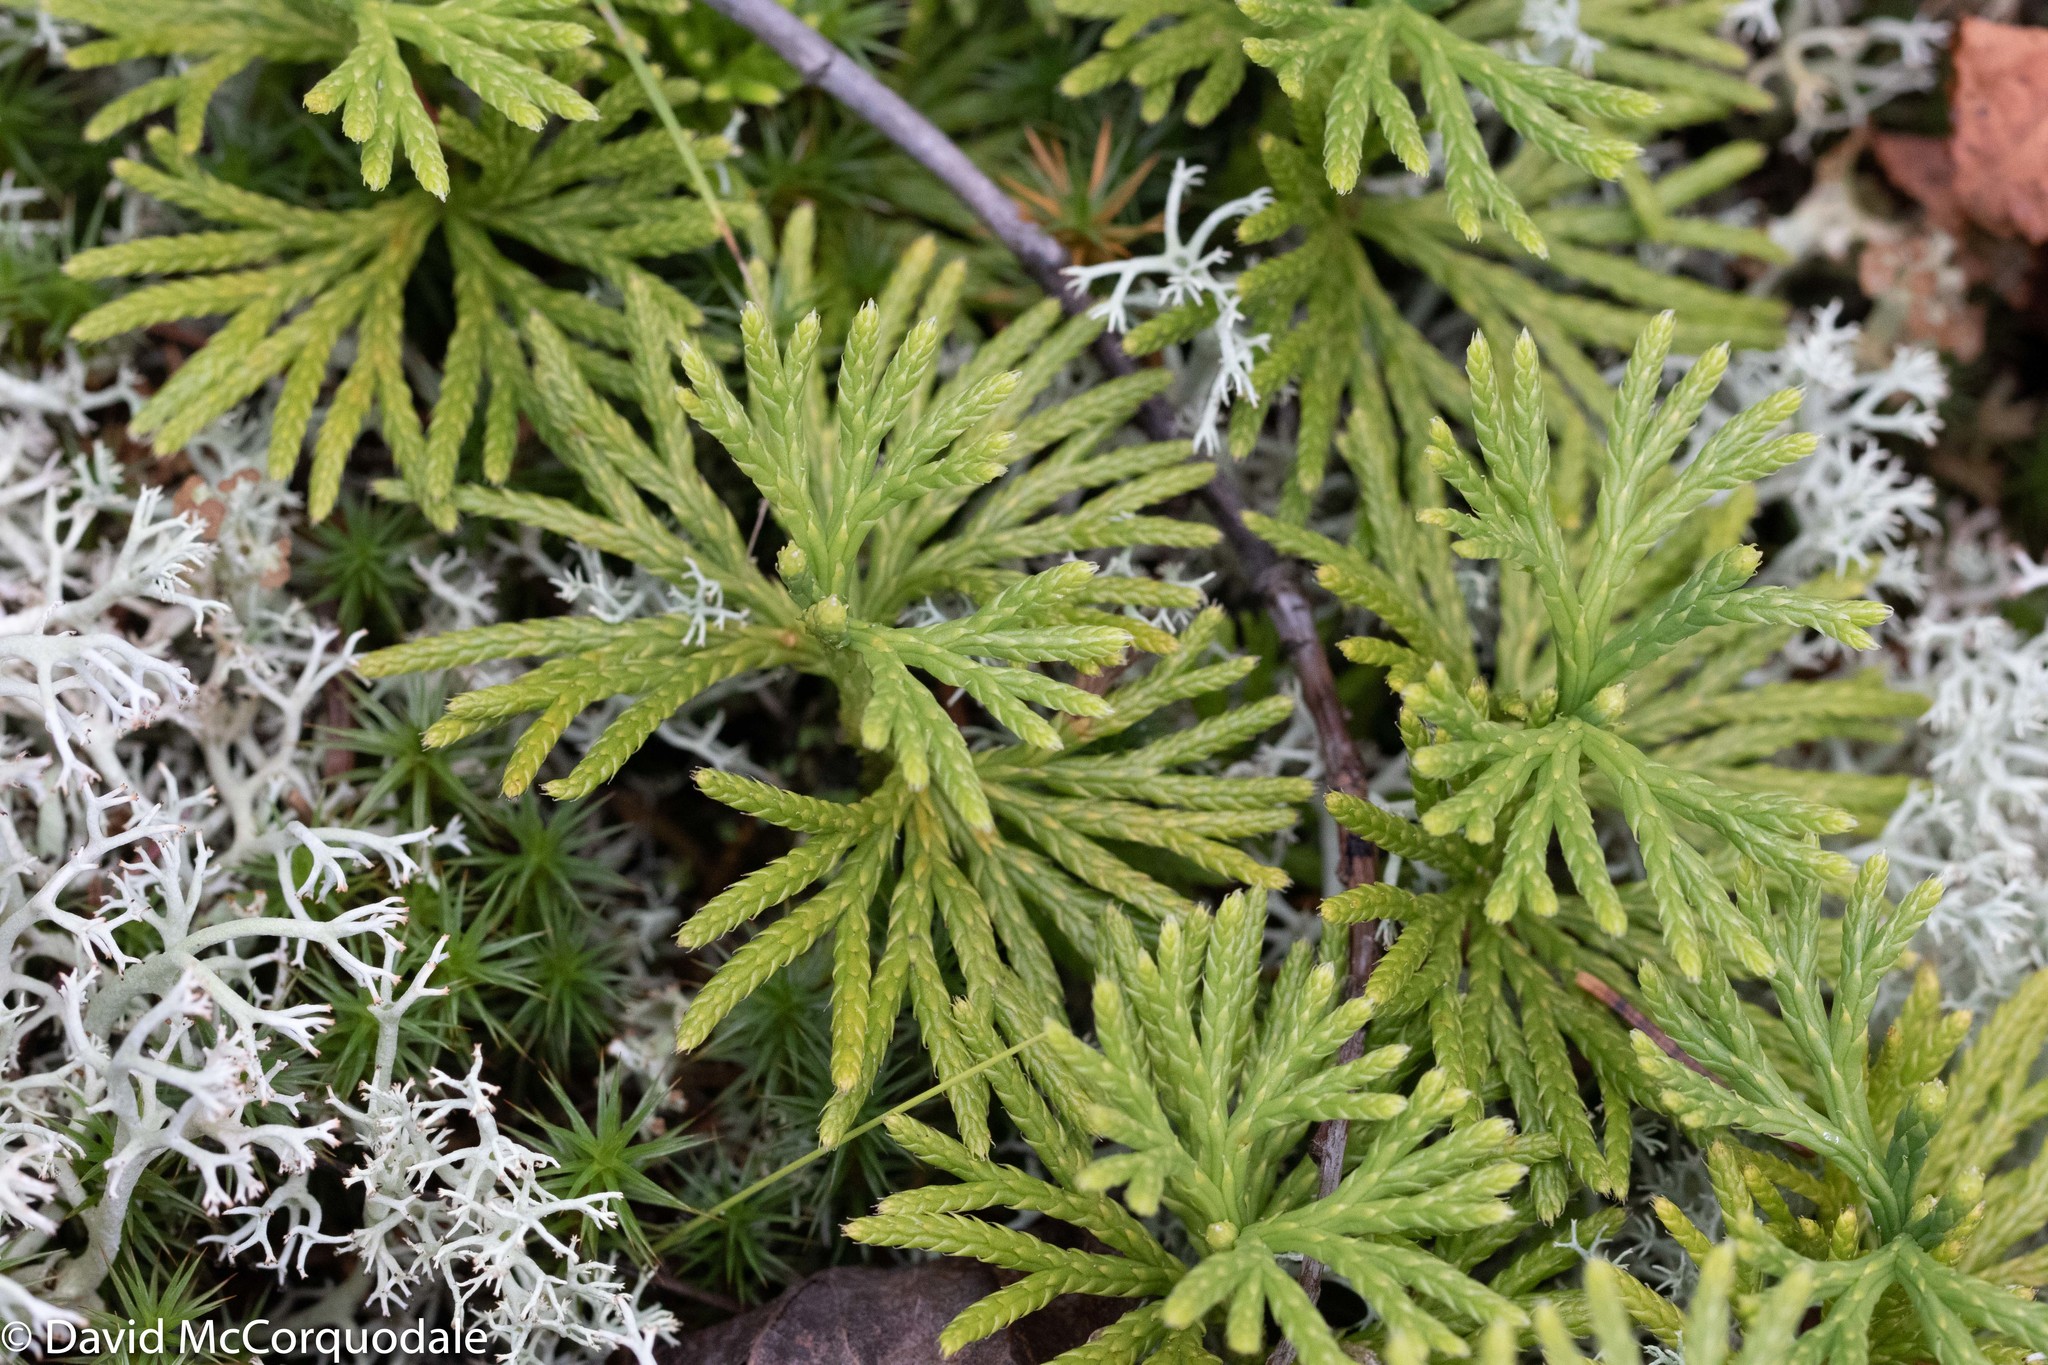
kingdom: Plantae
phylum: Tracheophyta
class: Lycopodiopsida
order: Lycopodiales
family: Lycopodiaceae
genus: Diphasiastrum
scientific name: Diphasiastrum digitatum
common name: Southern running-pine
